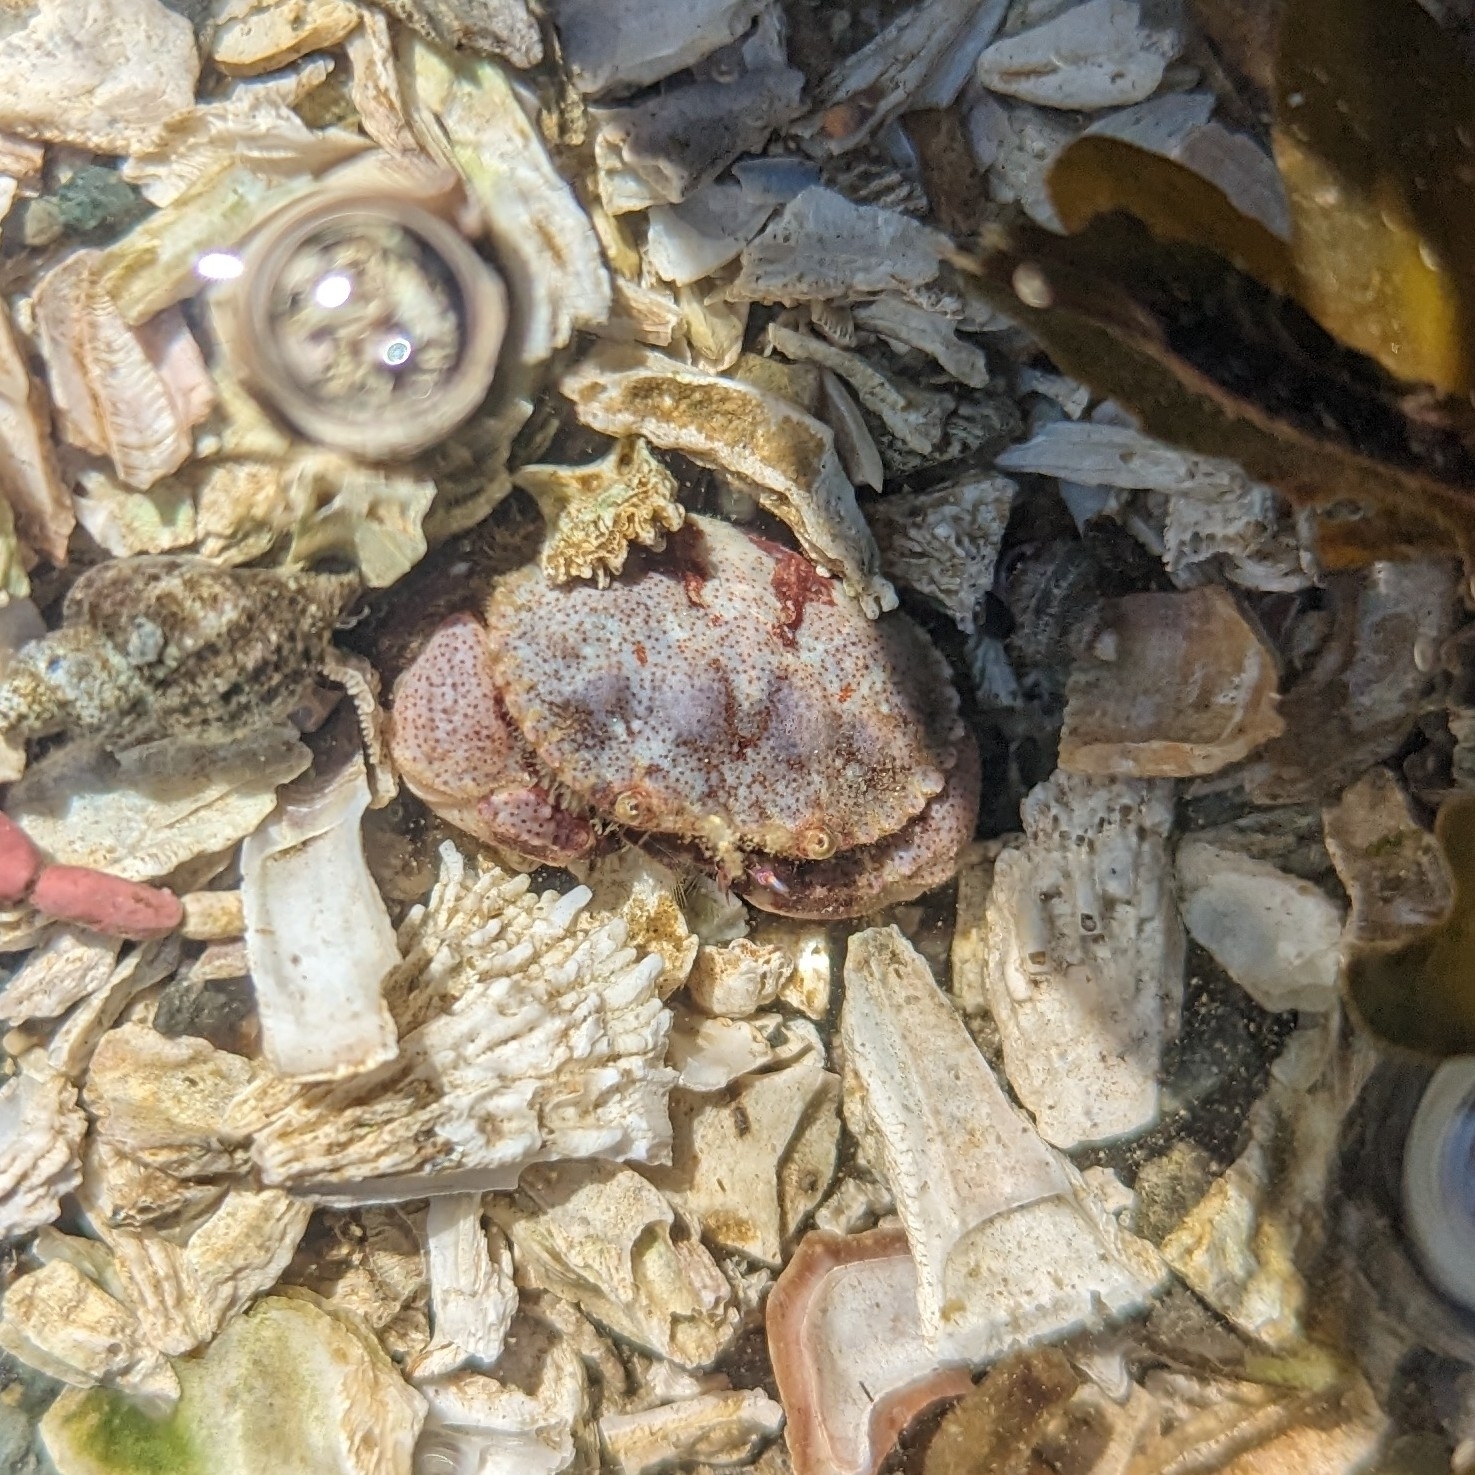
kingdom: Animalia
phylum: Arthropoda
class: Malacostraca
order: Decapoda
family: Cancridae
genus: Glebocarcinus
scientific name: Glebocarcinus oregonensis
